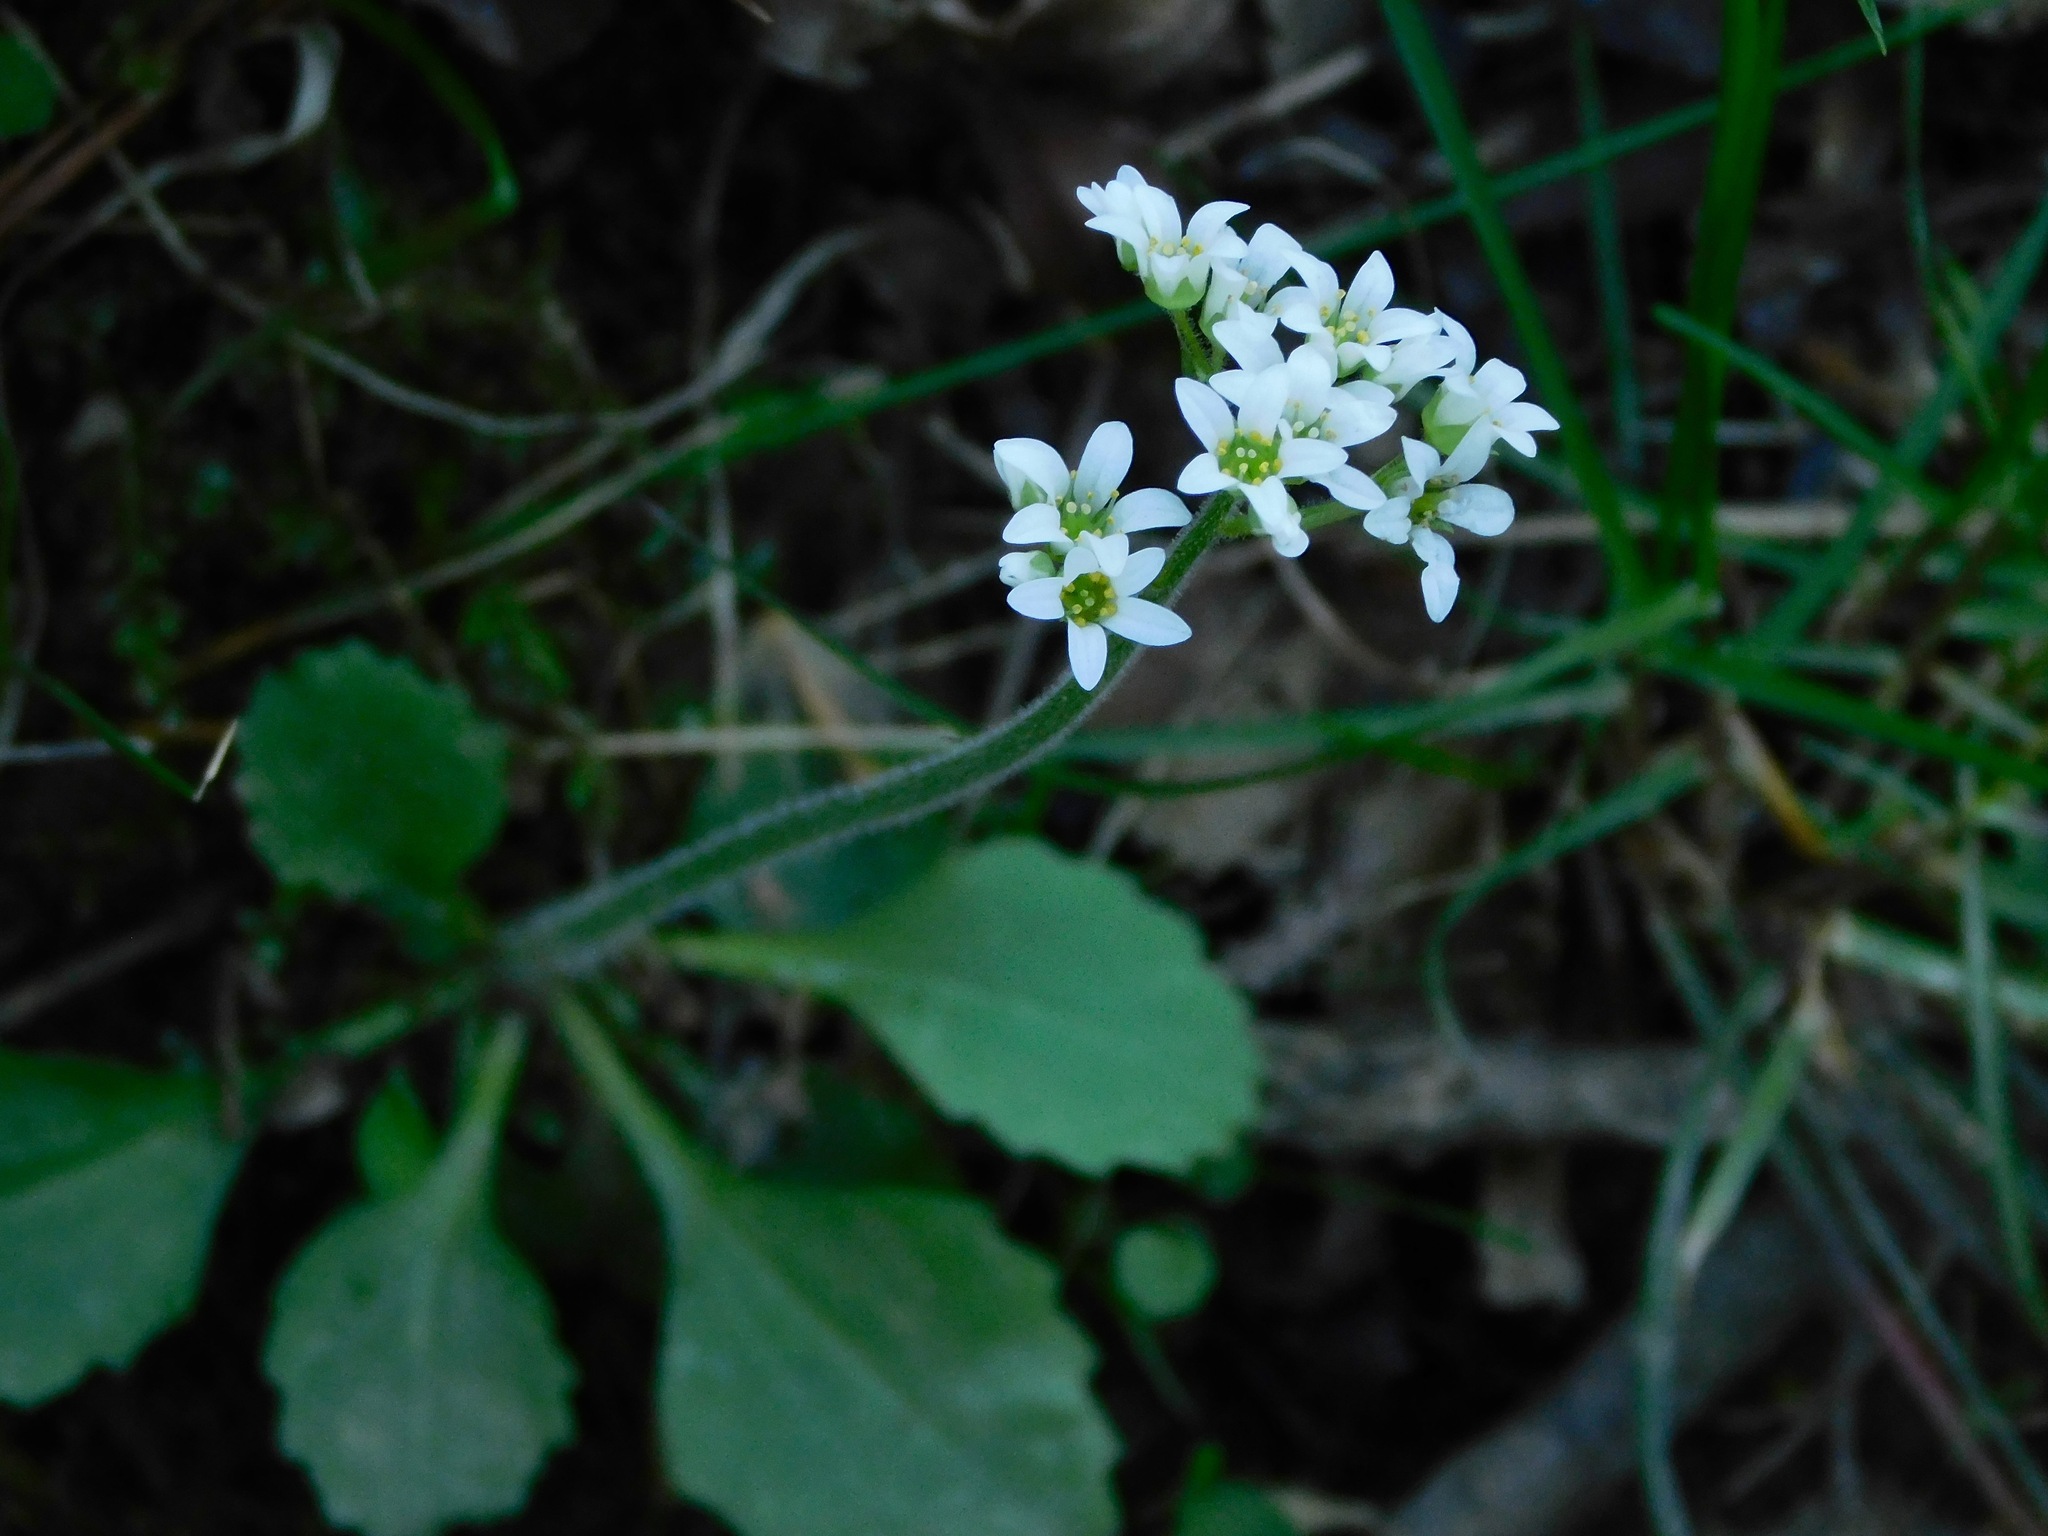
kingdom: Plantae
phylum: Tracheophyta
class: Magnoliopsida
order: Saxifragales
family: Saxifragaceae
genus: Micranthes
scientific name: Micranthes virginiensis
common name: Early saxifrage
